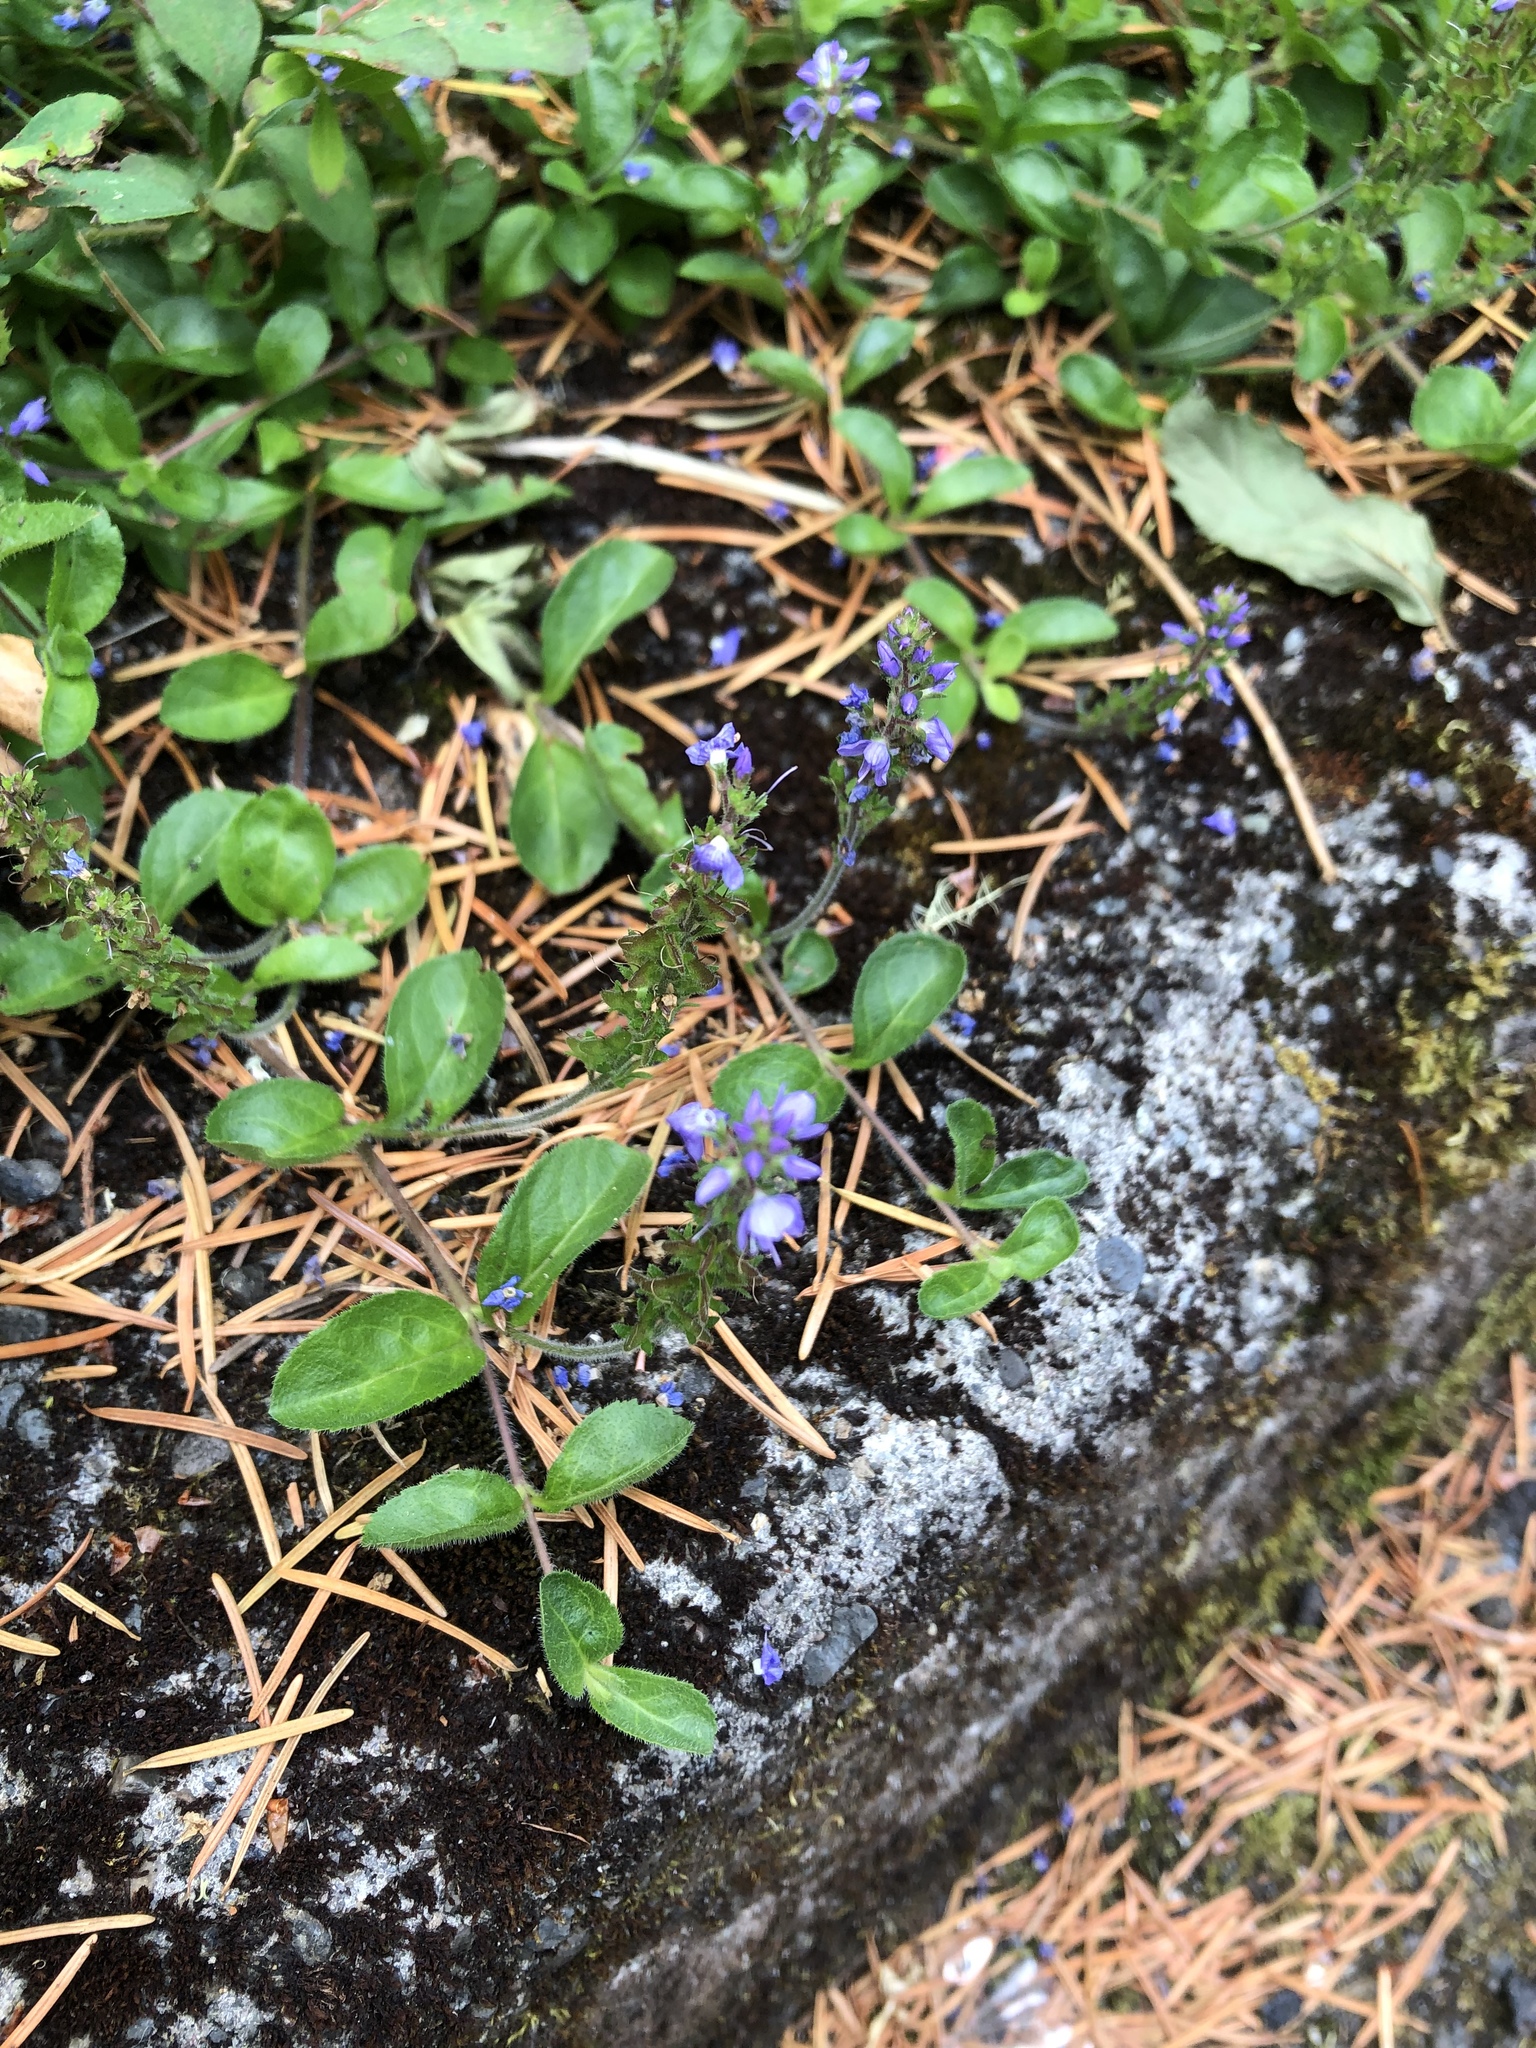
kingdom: Plantae
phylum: Tracheophyta
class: Magnoliopsida
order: Lamiales
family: Plantaginaceae
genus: Veronica
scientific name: Veronica officinalis
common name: Common speedwell
